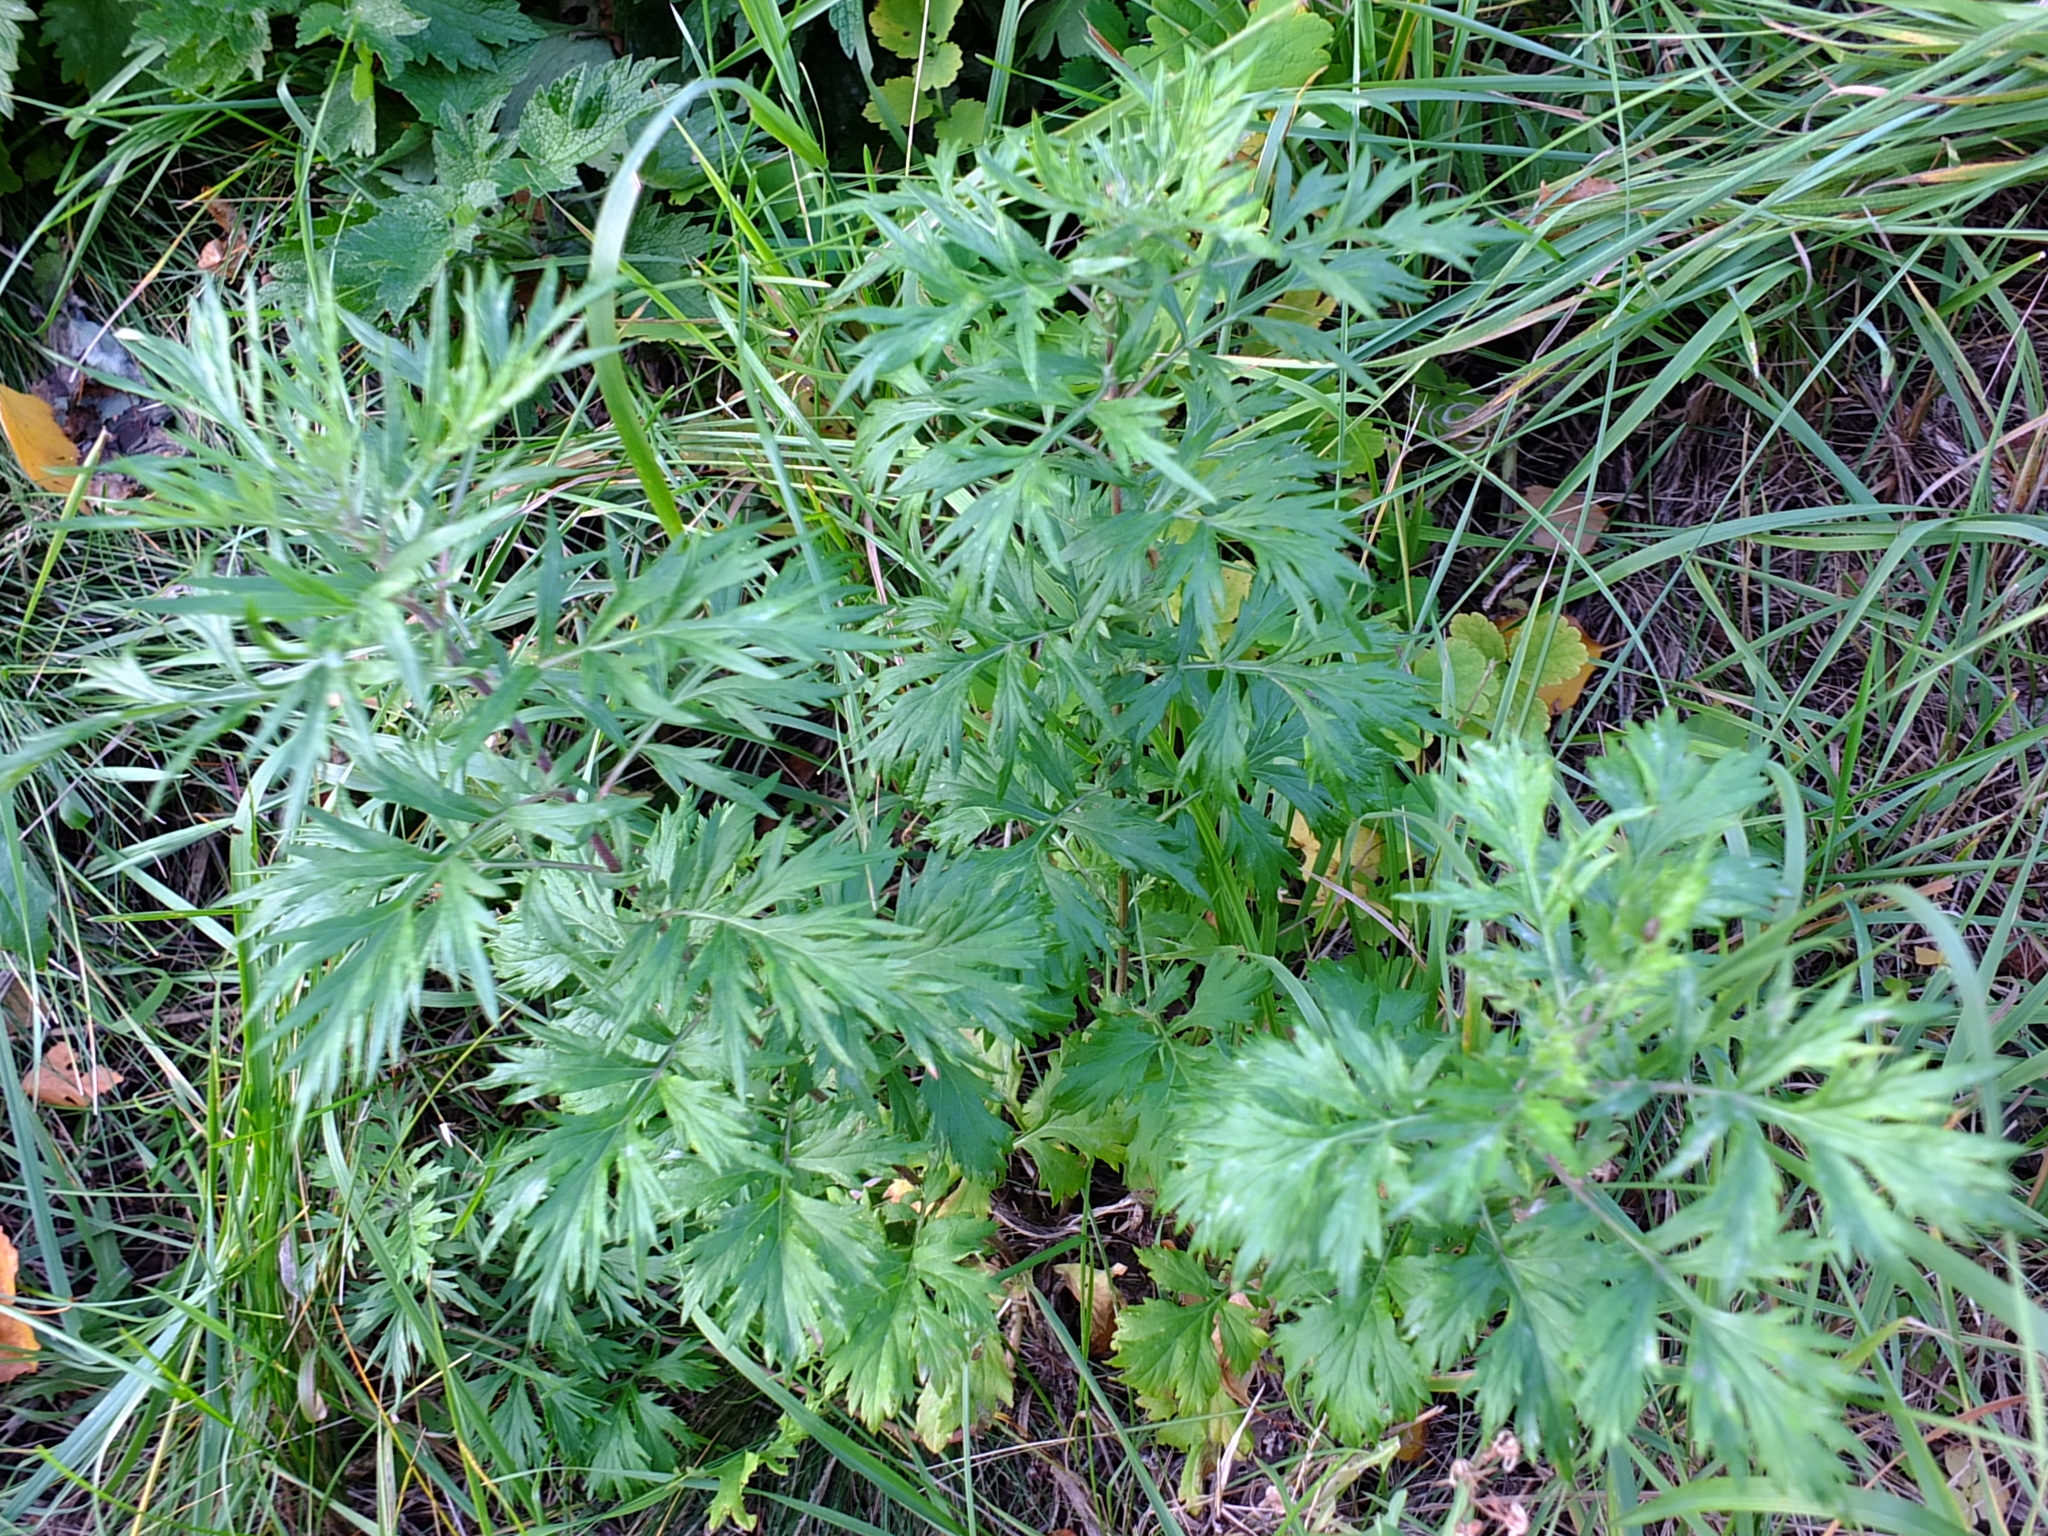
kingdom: Plantae
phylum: Tracheophyta
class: Magnoliopsida
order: Asterales
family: Asteraceae
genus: Artemisia
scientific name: Artemisia vulgaris
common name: Mugwort
